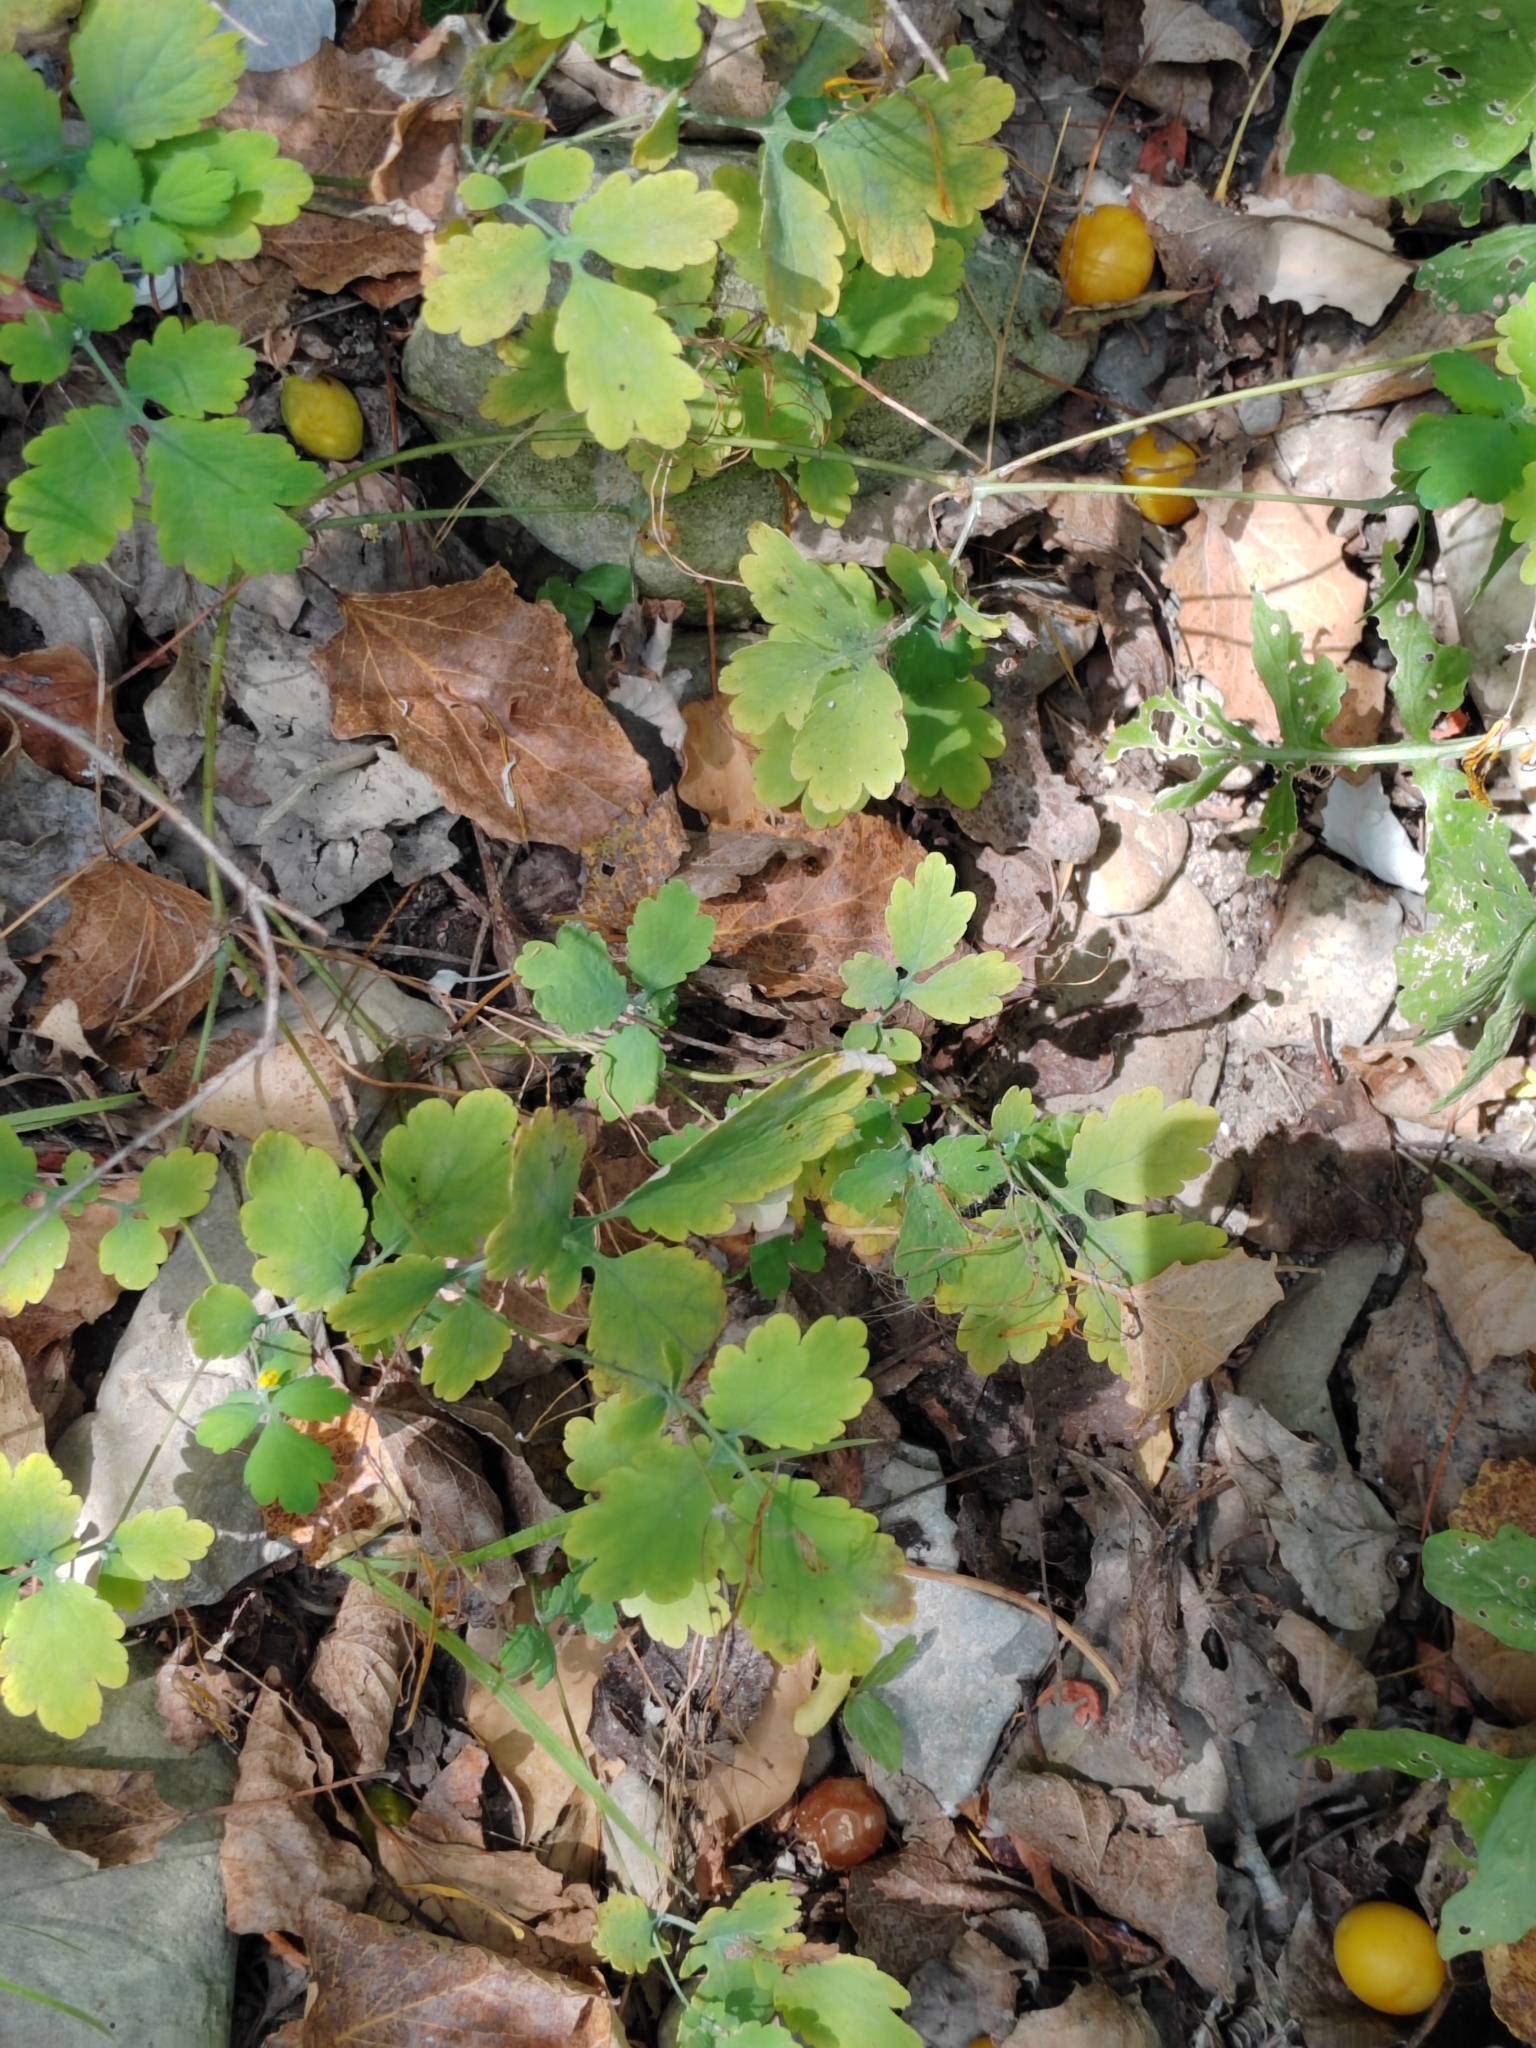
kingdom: Plantae
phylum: Tracheophyta
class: Magnoliopsida
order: Ranunculales
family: Papaveraceae
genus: Chelidonium
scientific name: Chelidonium majus
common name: Greater celandine
